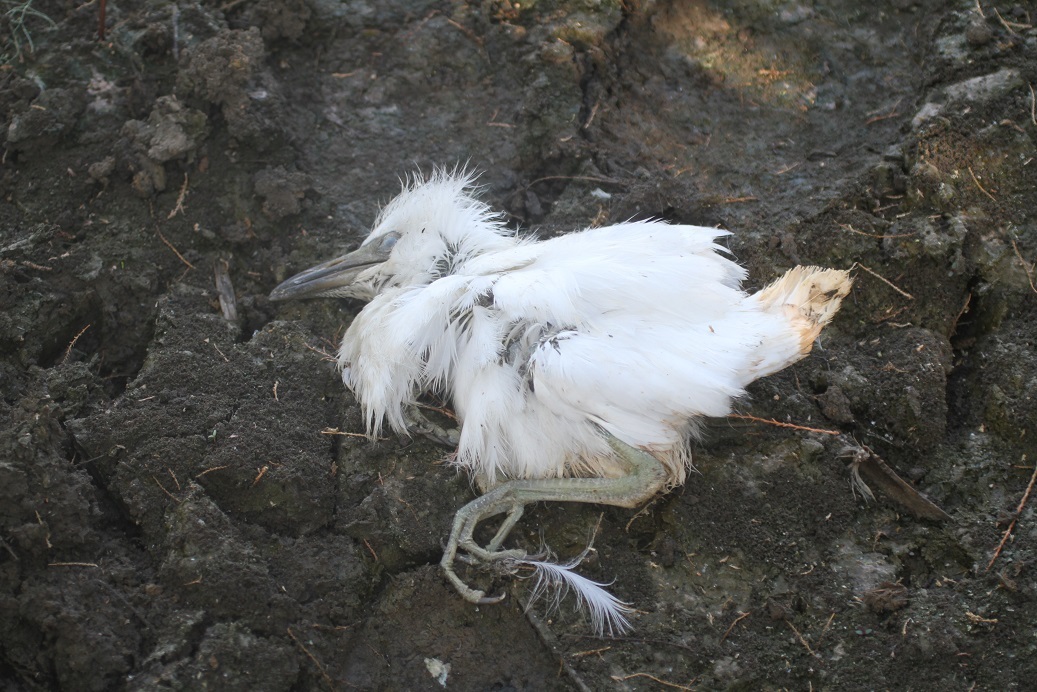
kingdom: Animalia
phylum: Chordata
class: Aves
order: Pelecaniformes
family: Ardeidae
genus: Bubulcus
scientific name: Bubulcus ibis
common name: Cattle egret
